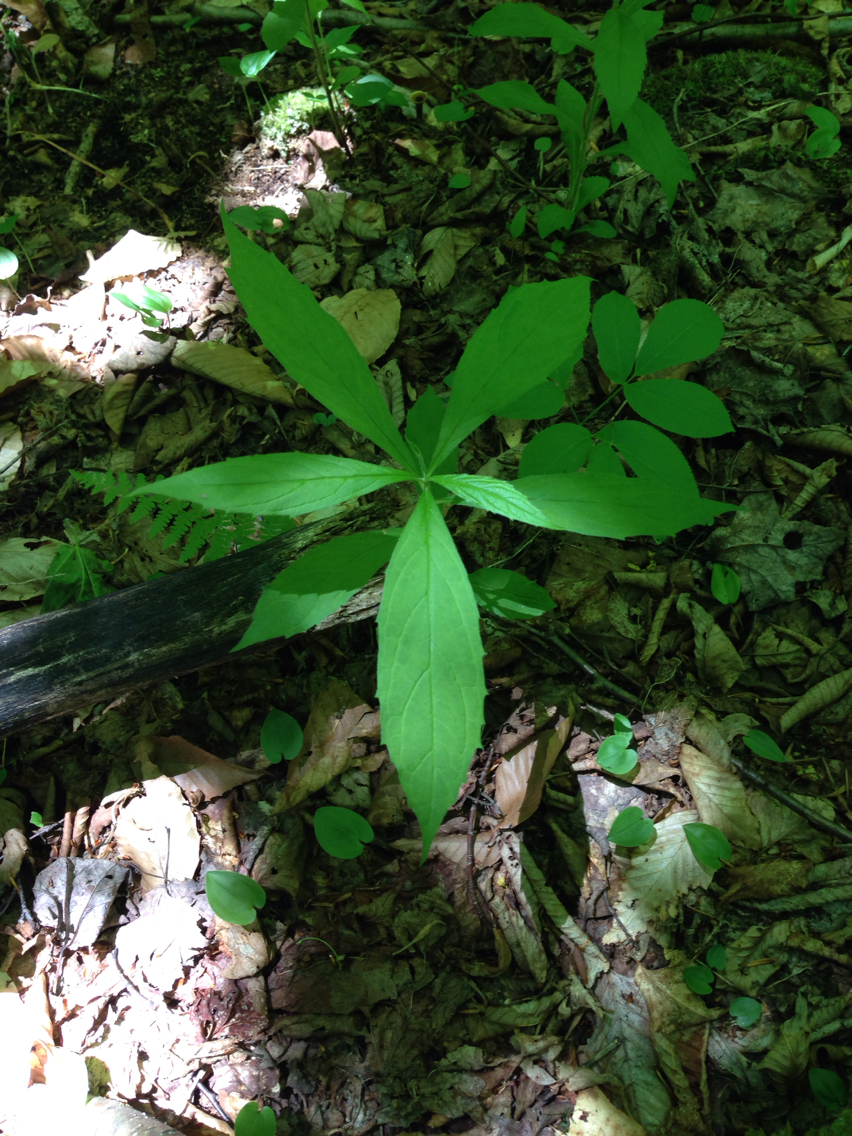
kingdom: Plantae
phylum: Tracheophyta
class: Magnoliopsida
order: Asterales
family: Asteraceae
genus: Oclemena
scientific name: Oclemena acuminata
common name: Mountain aster
